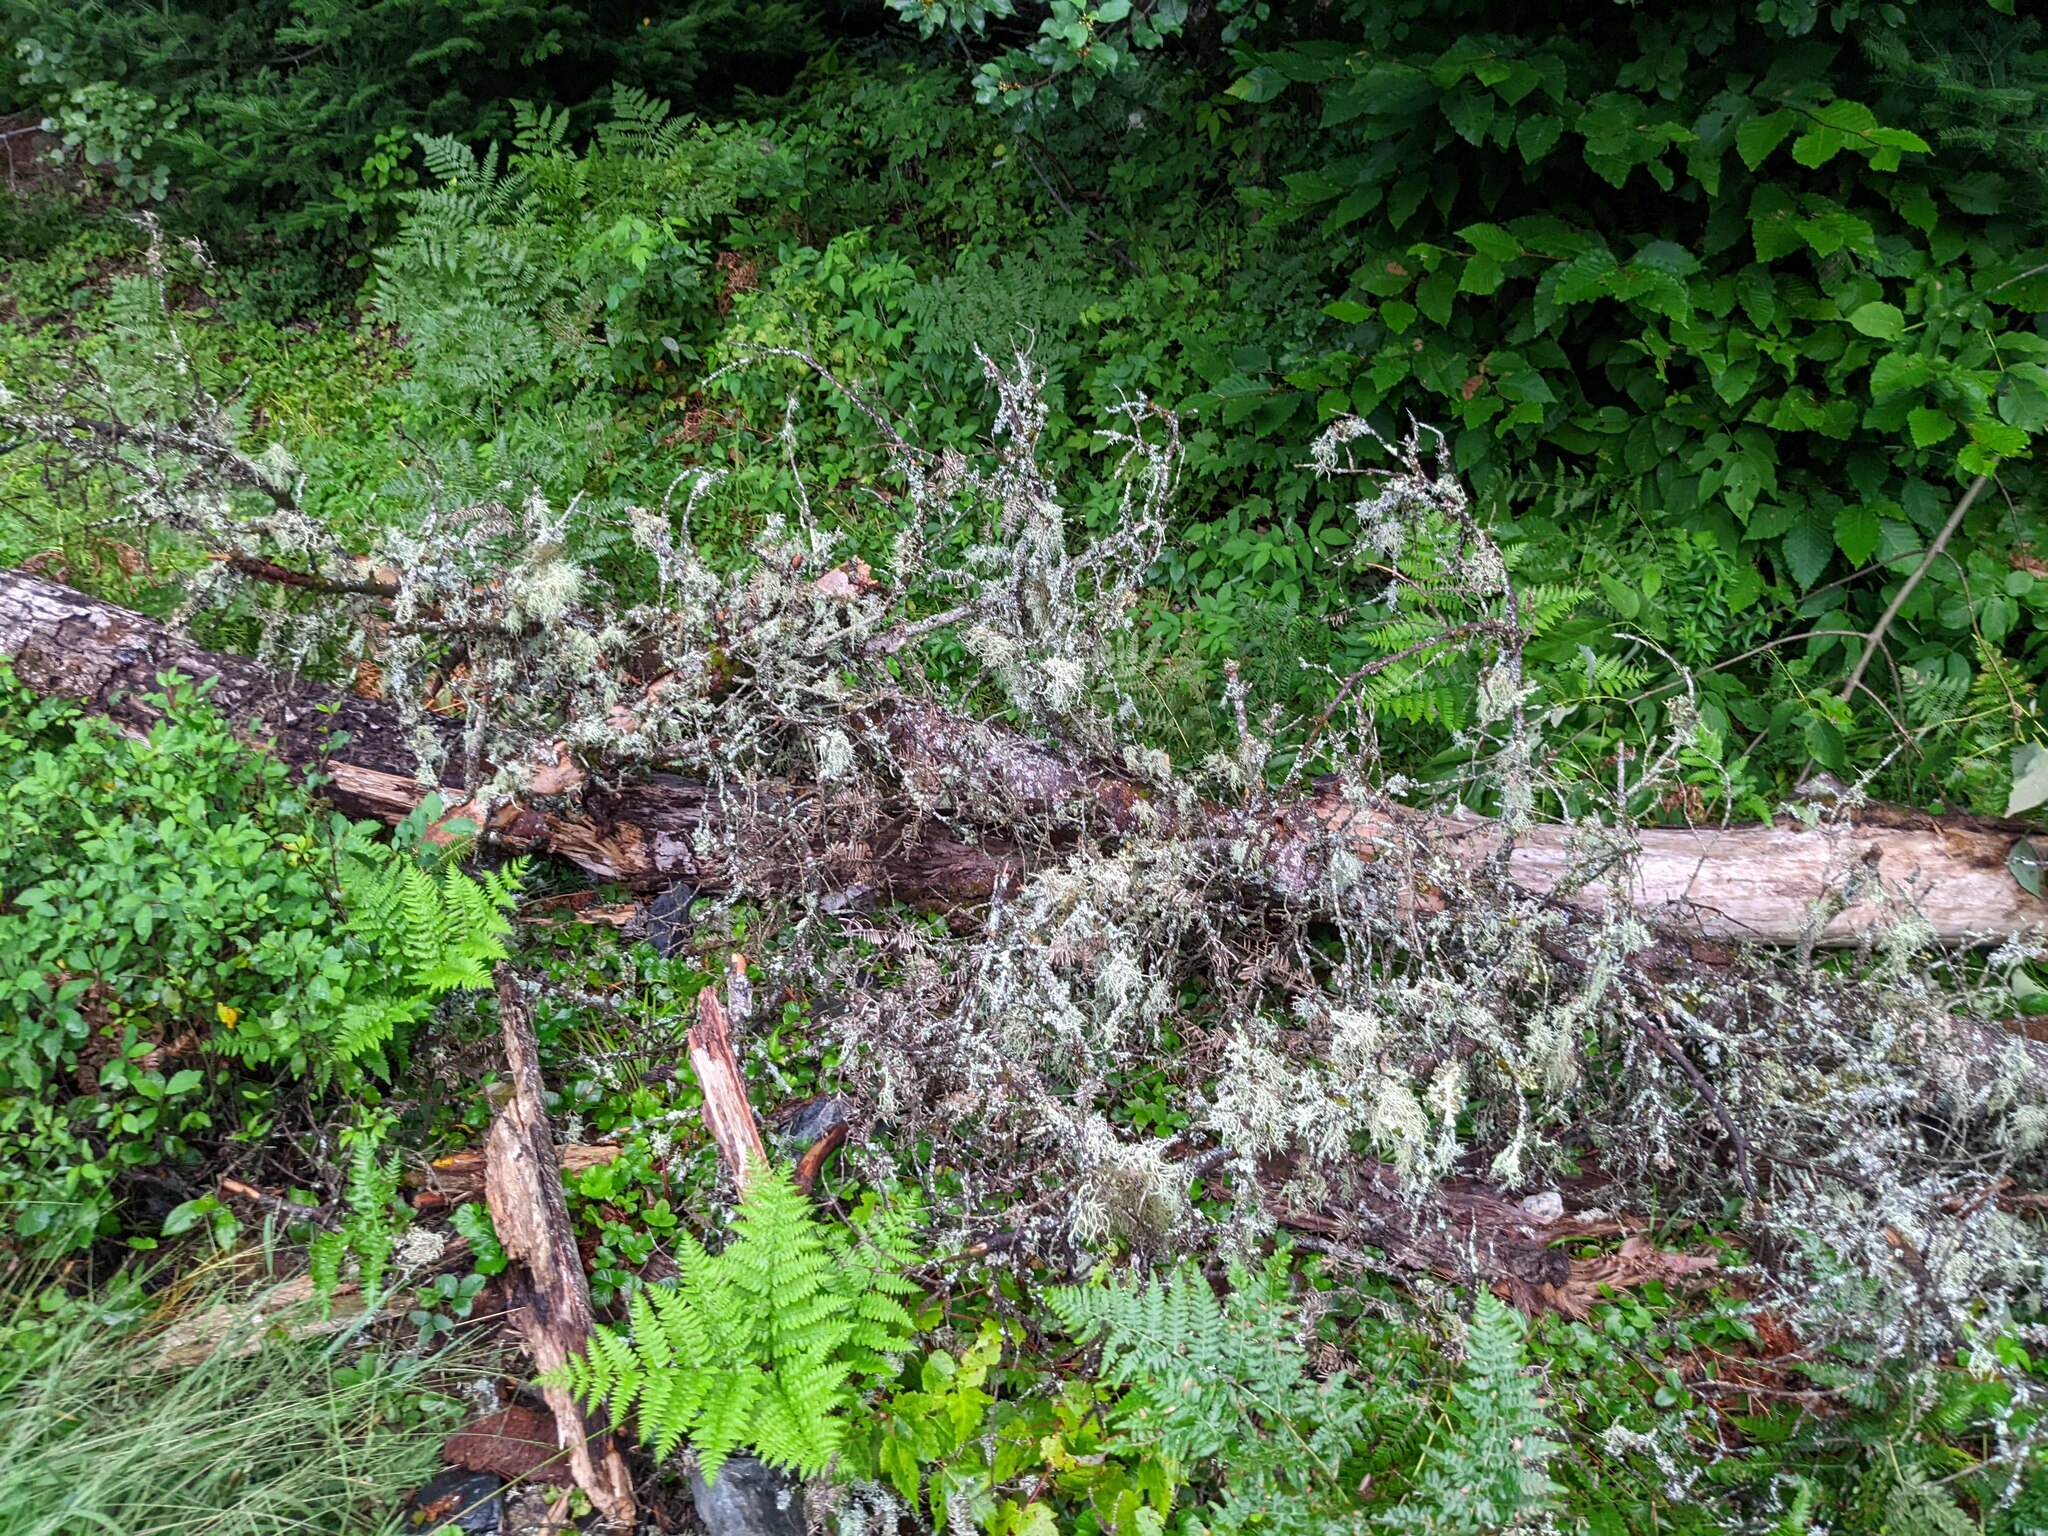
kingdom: Plantae
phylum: Tracheophyta
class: Magnoliopsida
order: Asterales
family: Asteraceae
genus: Artemisia
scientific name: Artemisia vulgaris
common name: Mugwort
